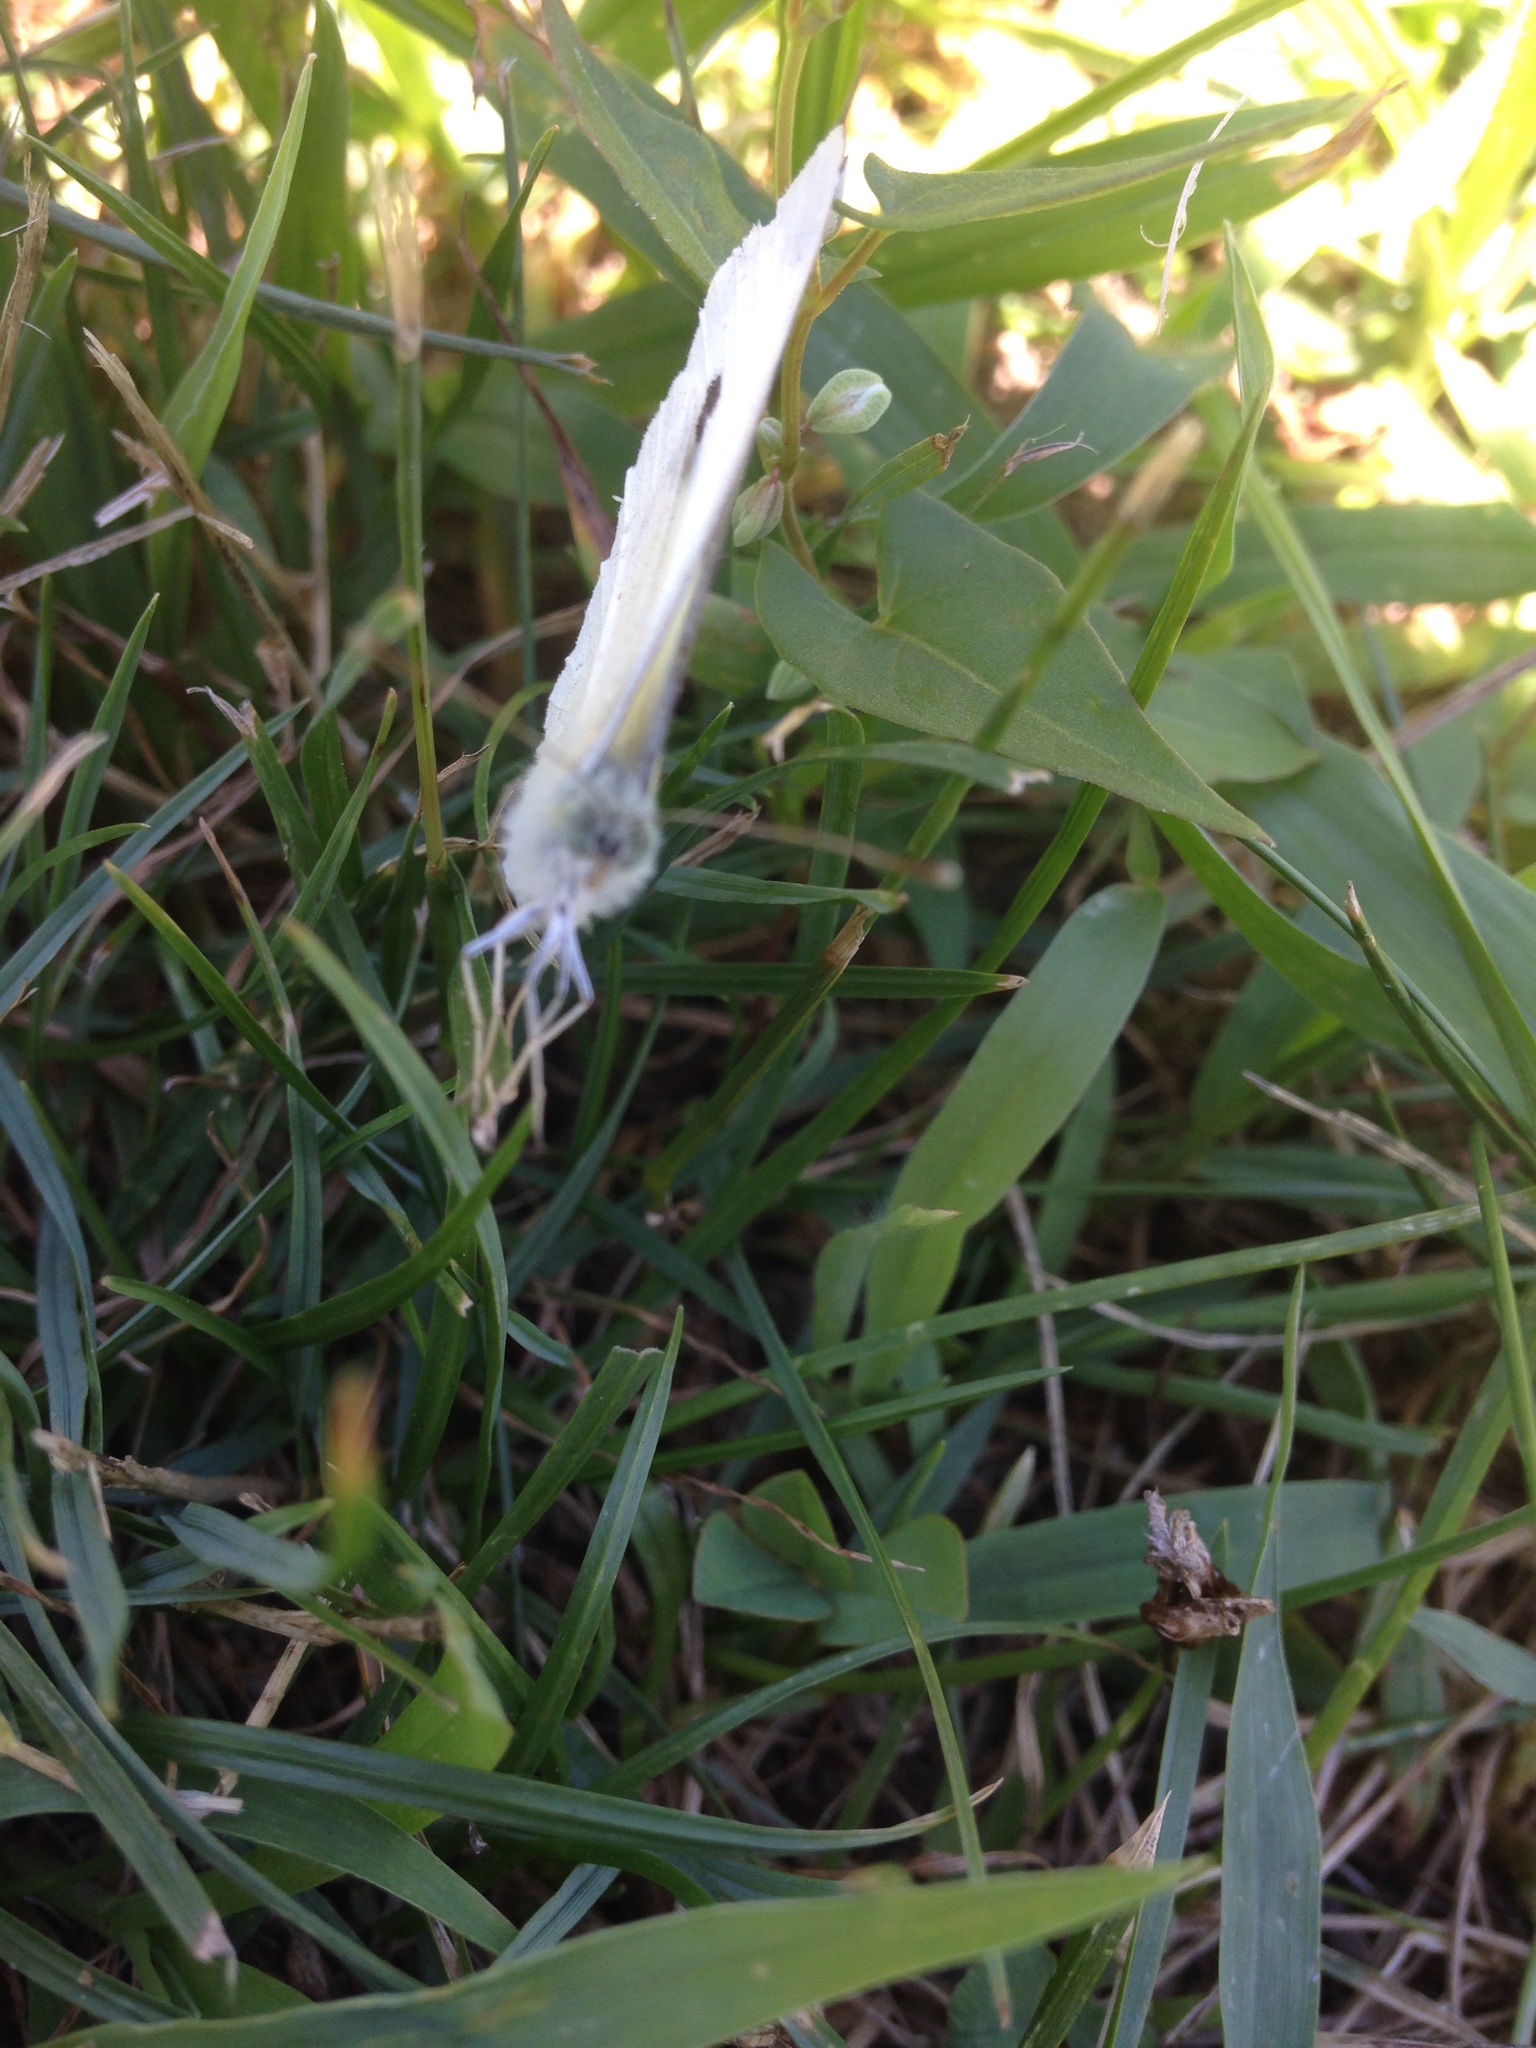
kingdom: Animalia
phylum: Arthropoda
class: Insecta
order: Lepidoptera
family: Pieridae
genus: Pieris
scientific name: Pieris rapae
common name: Small white
